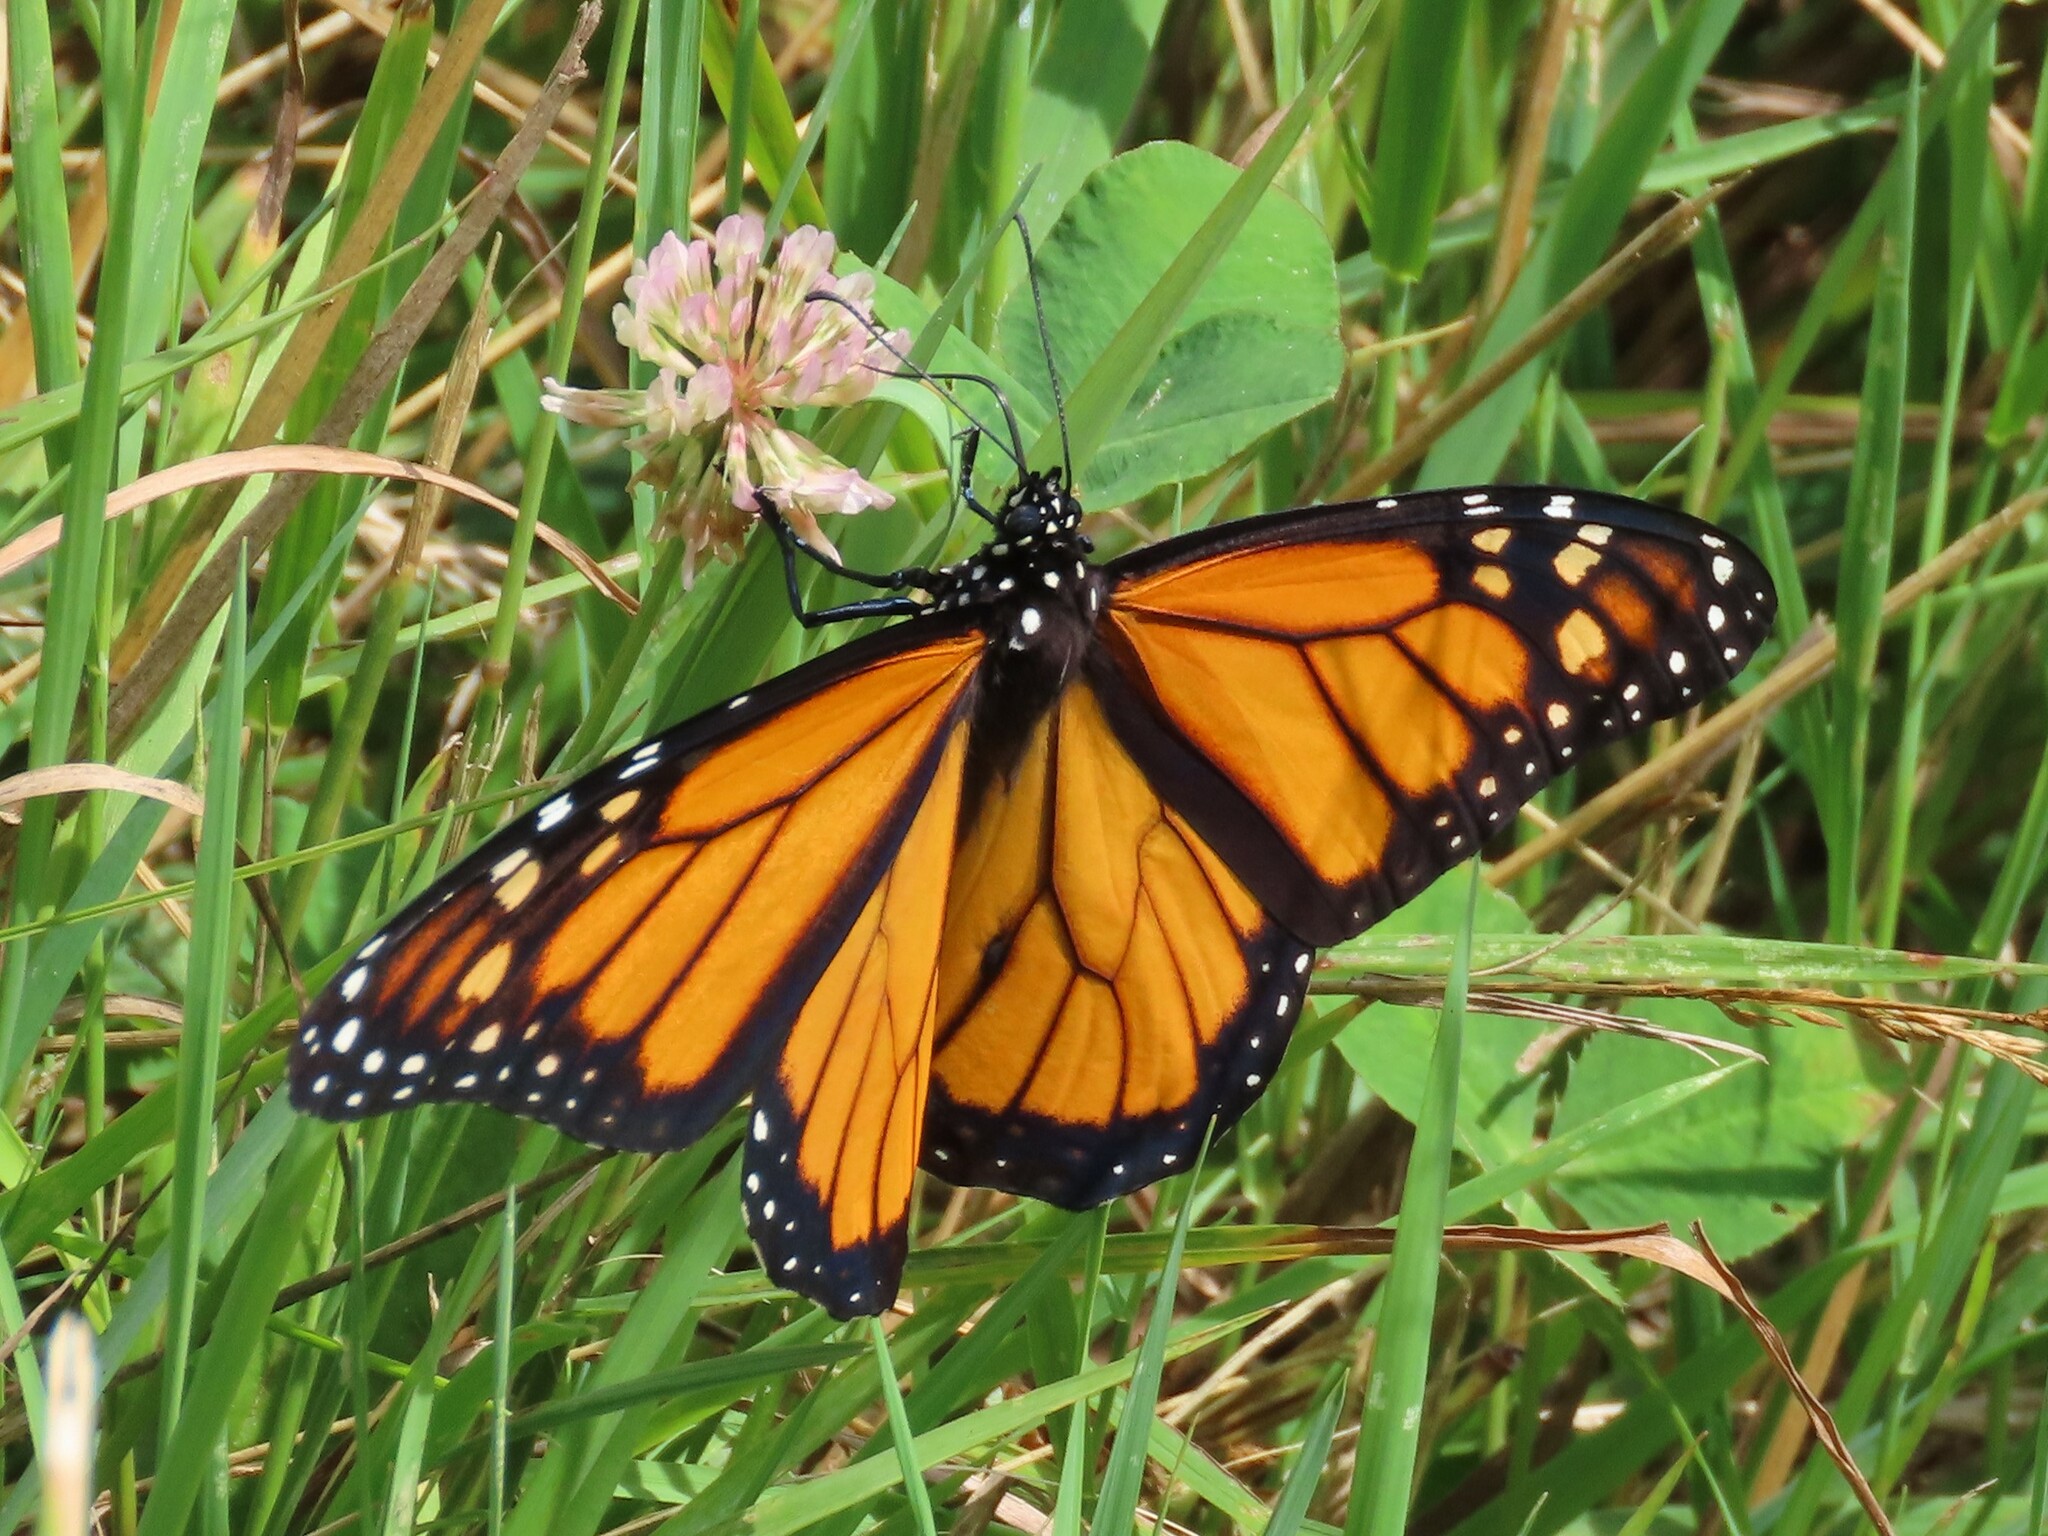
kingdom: Animalia
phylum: Arthropoda
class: Insecta
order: Lepidoptera
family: Nymphalidae
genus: Danaus
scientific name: Danaus plexippus
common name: Monarch
